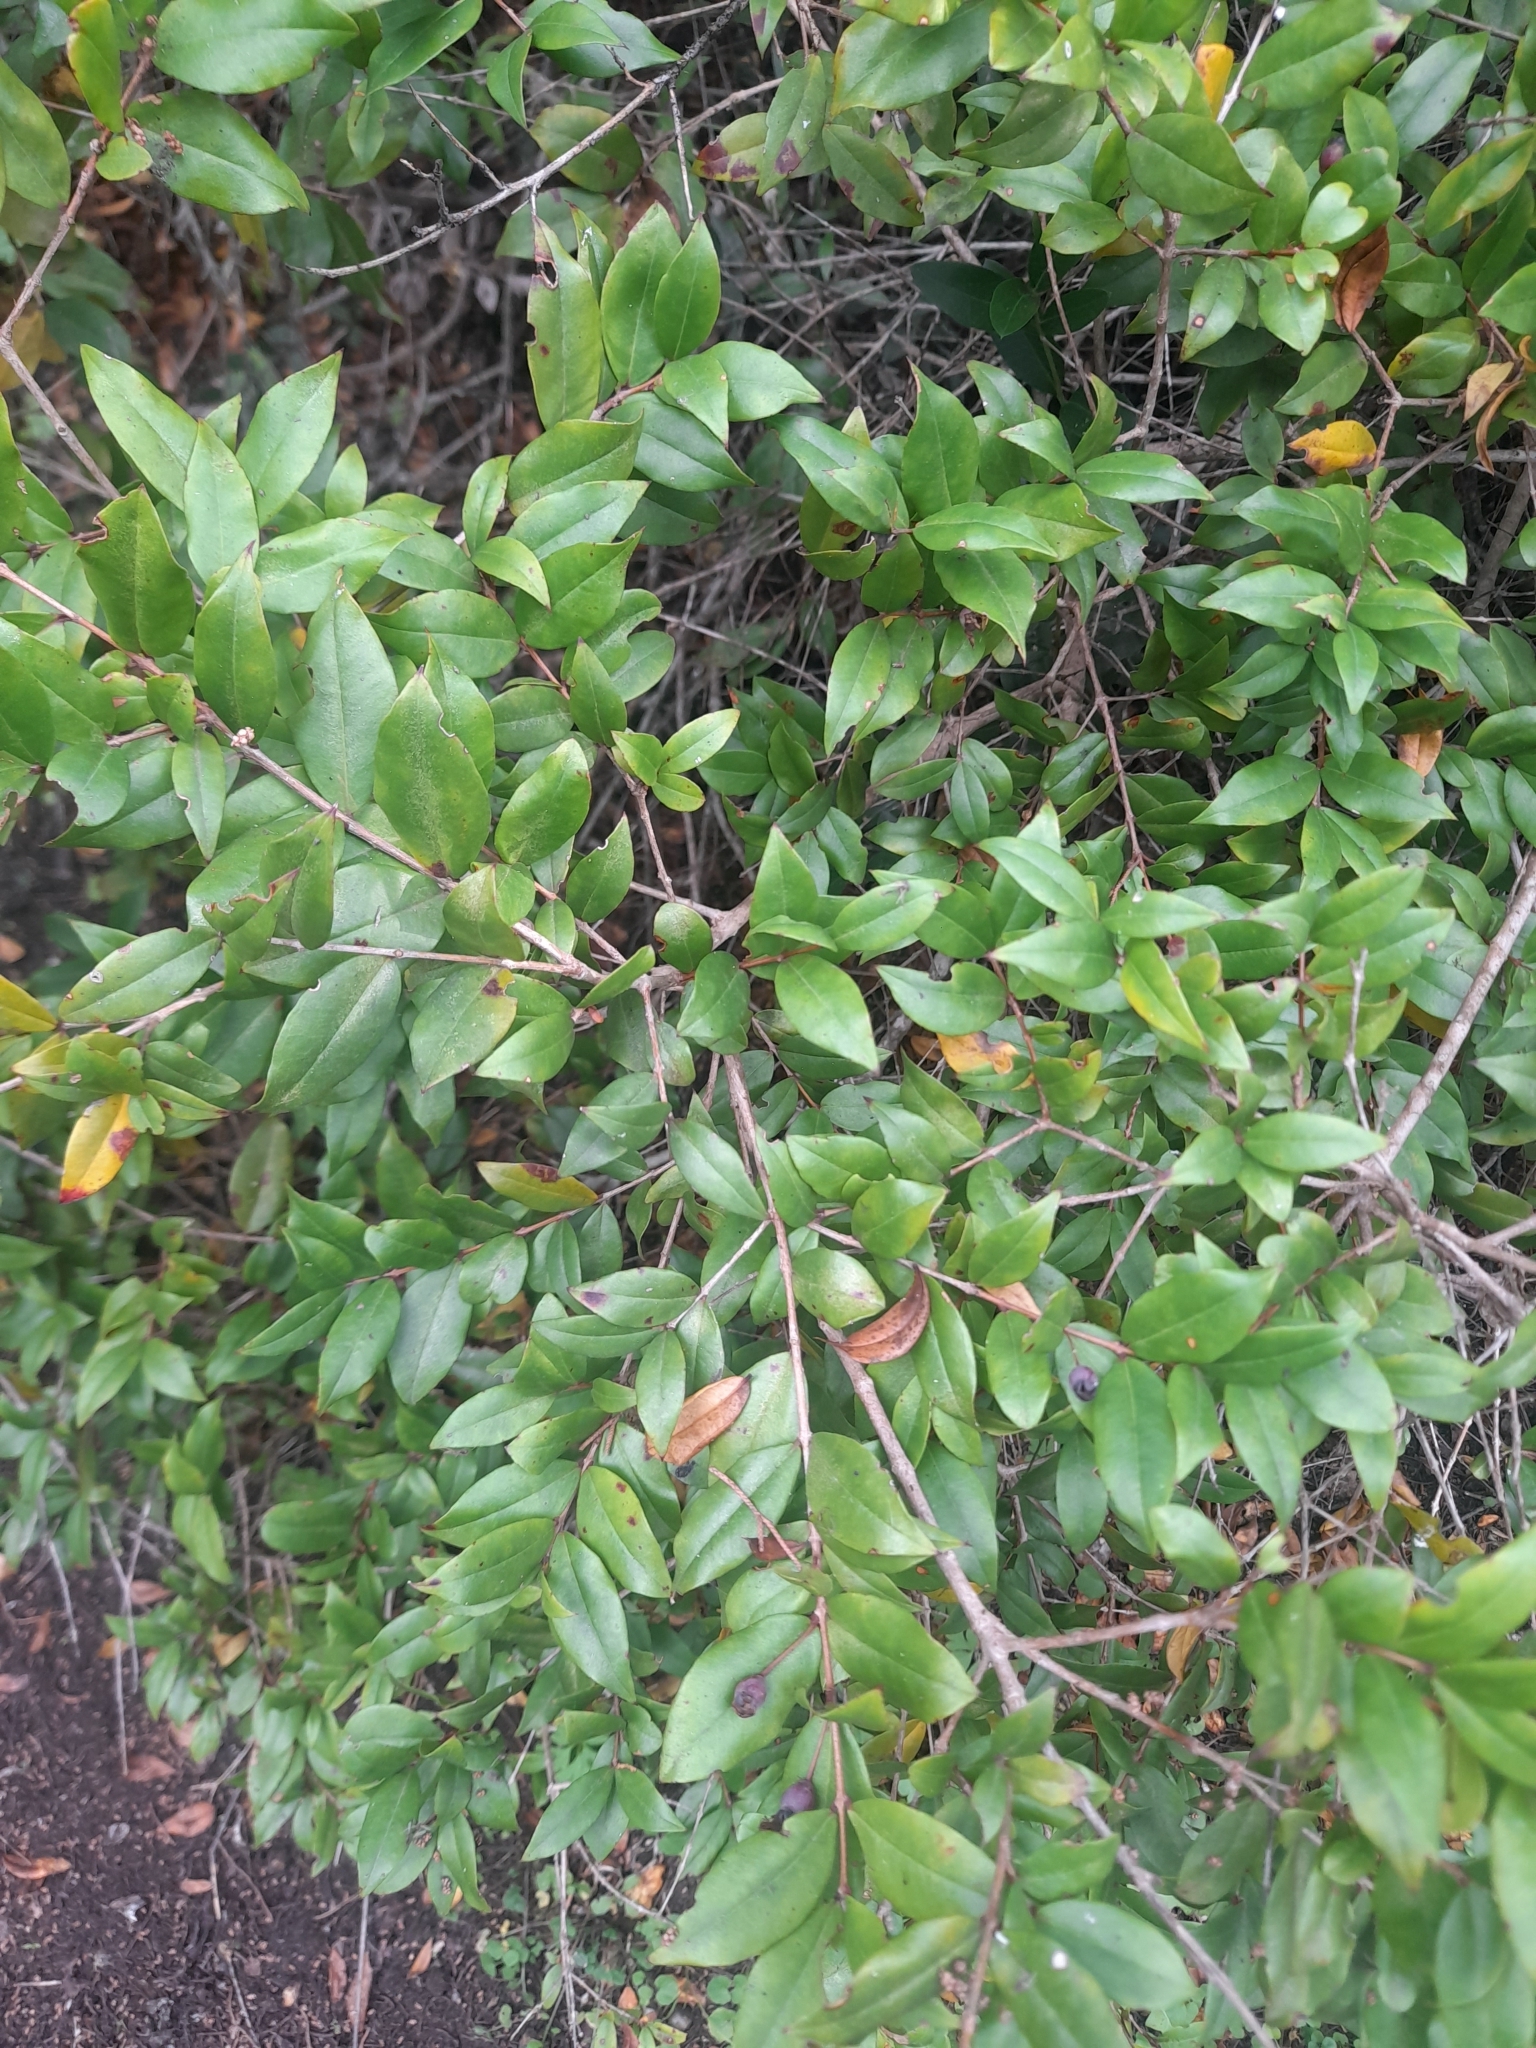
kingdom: Plantae
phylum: Tracheophyta
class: Magnoliopsida
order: Myrtales
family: Myrtaceae
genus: Myrtus
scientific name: Myrtus communis
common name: Myrtle
